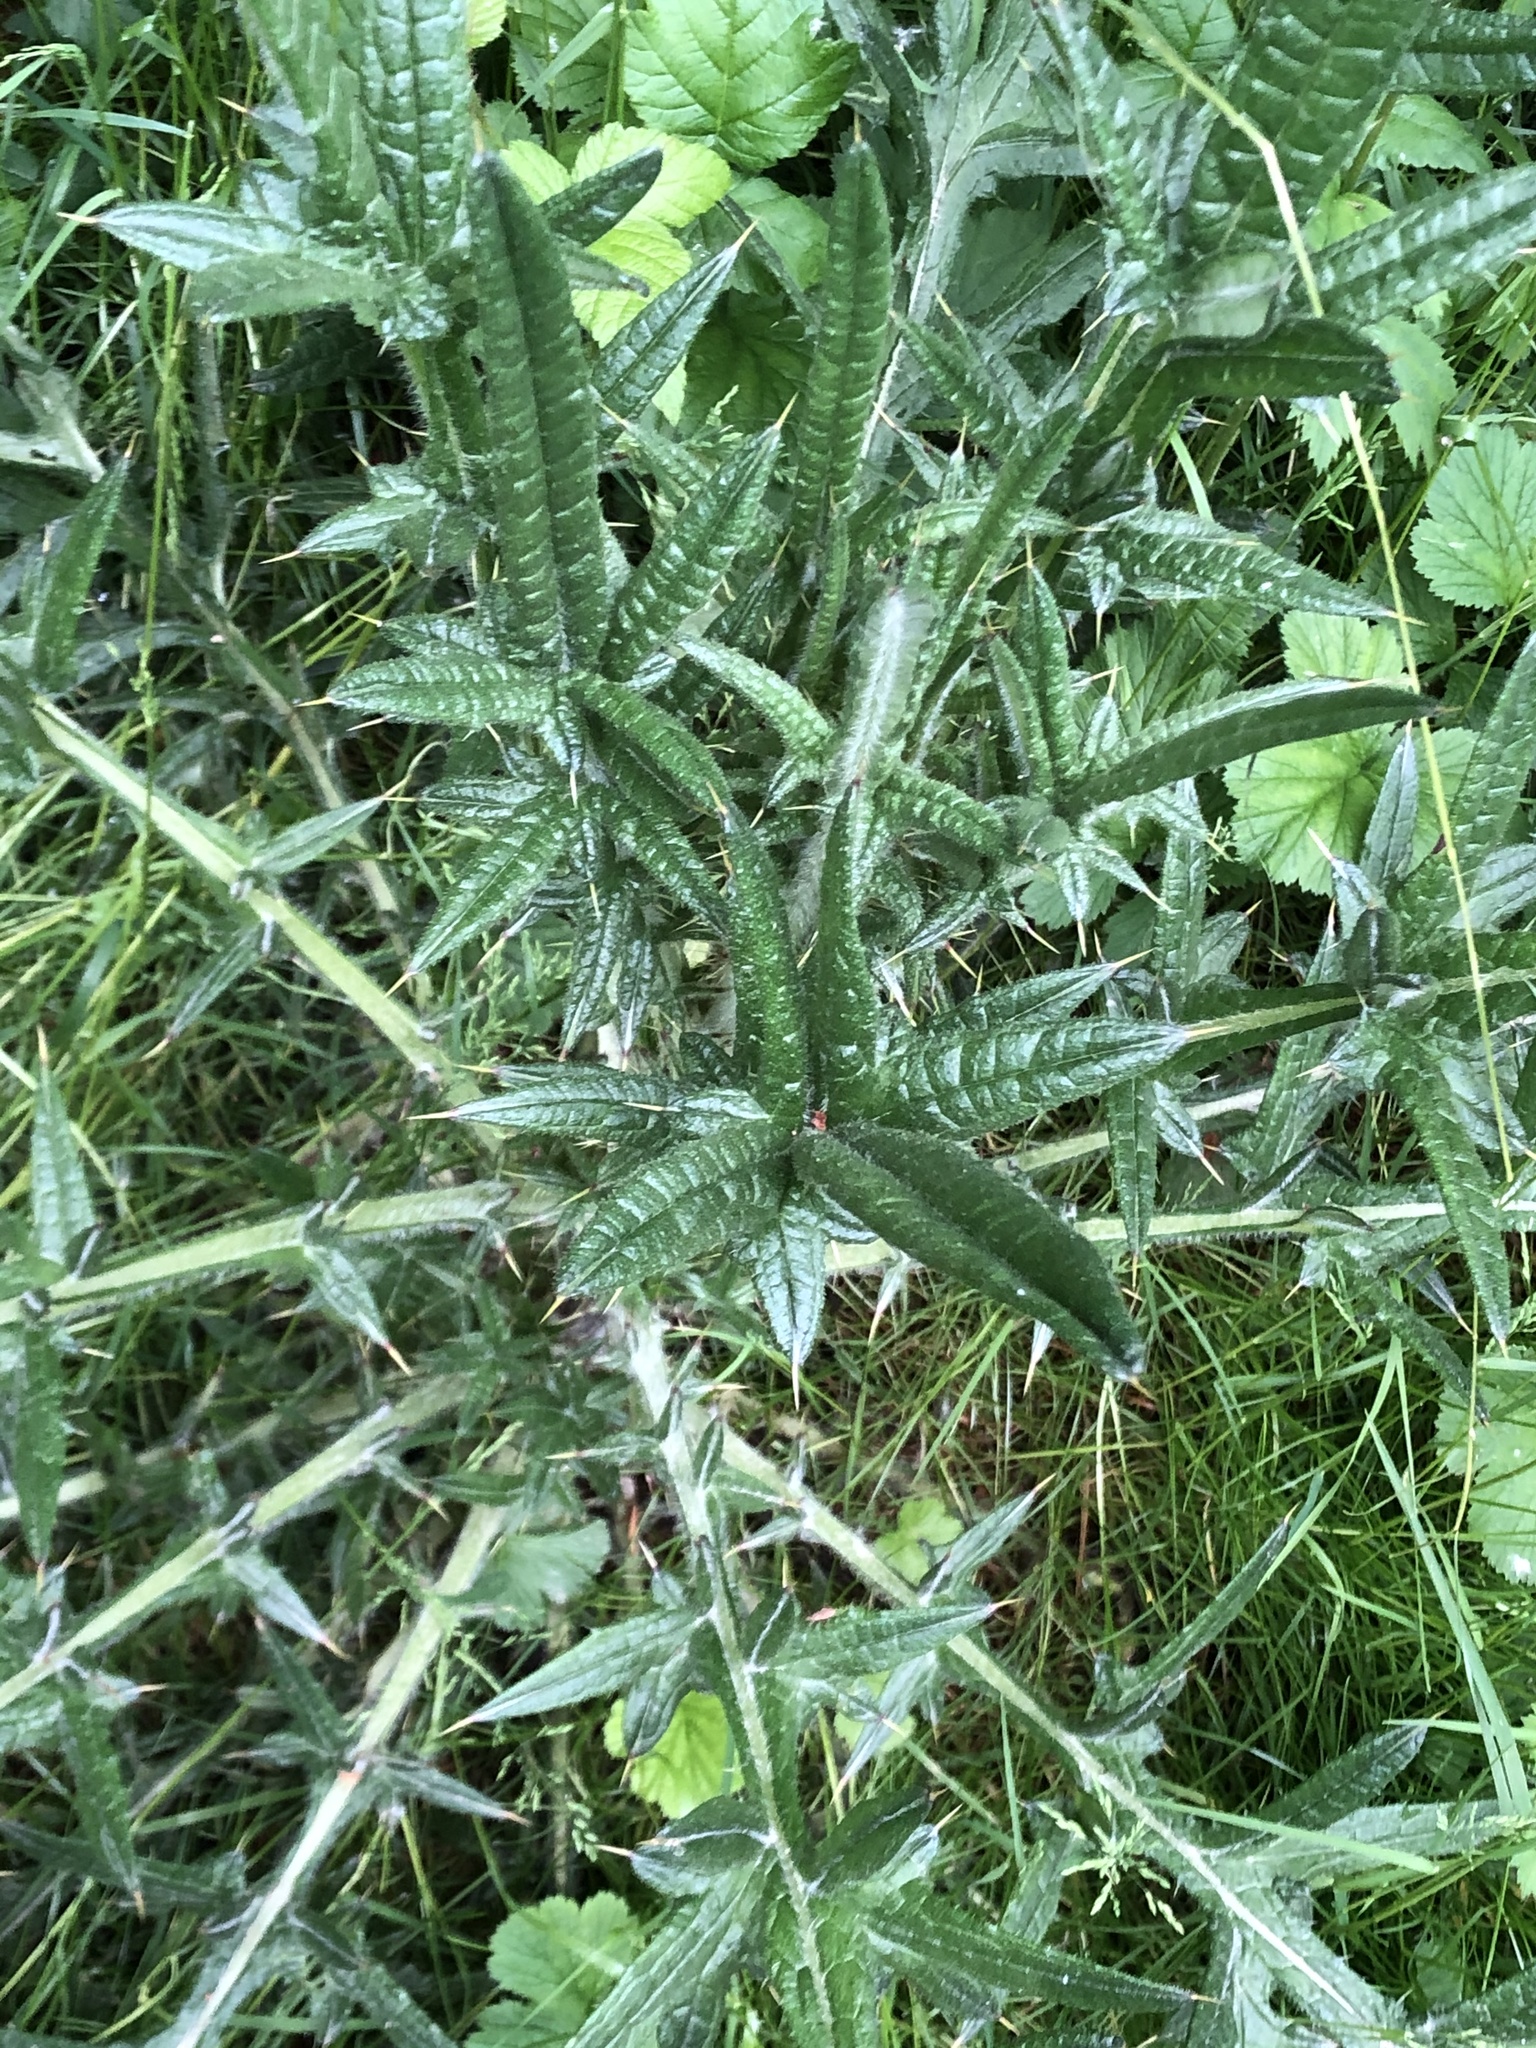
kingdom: Plantae
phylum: Tracheophyta
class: Magnoliopsida
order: Asterales
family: Asteraceae
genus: Cirsium
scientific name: Cirsium vulgare
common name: Bull thistle
